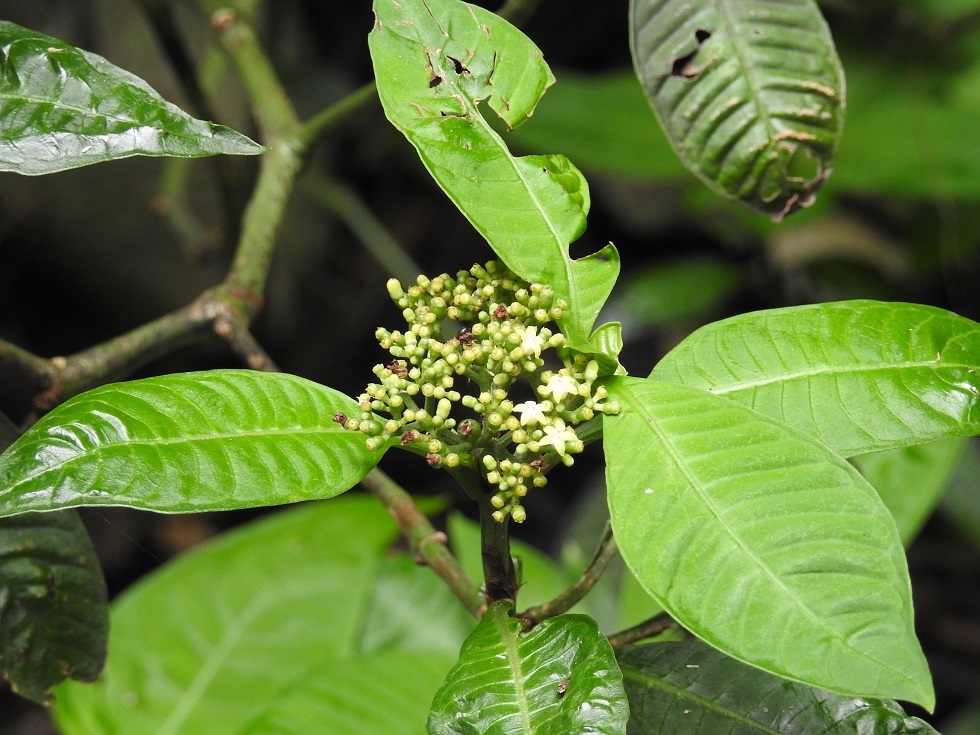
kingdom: Plantae
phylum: Tracheophyta
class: Magnoliopsida
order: Gentianales
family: Rubiaceae
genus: Psychotria
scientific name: Psychotria nervosa
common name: Bastard cankerberry
